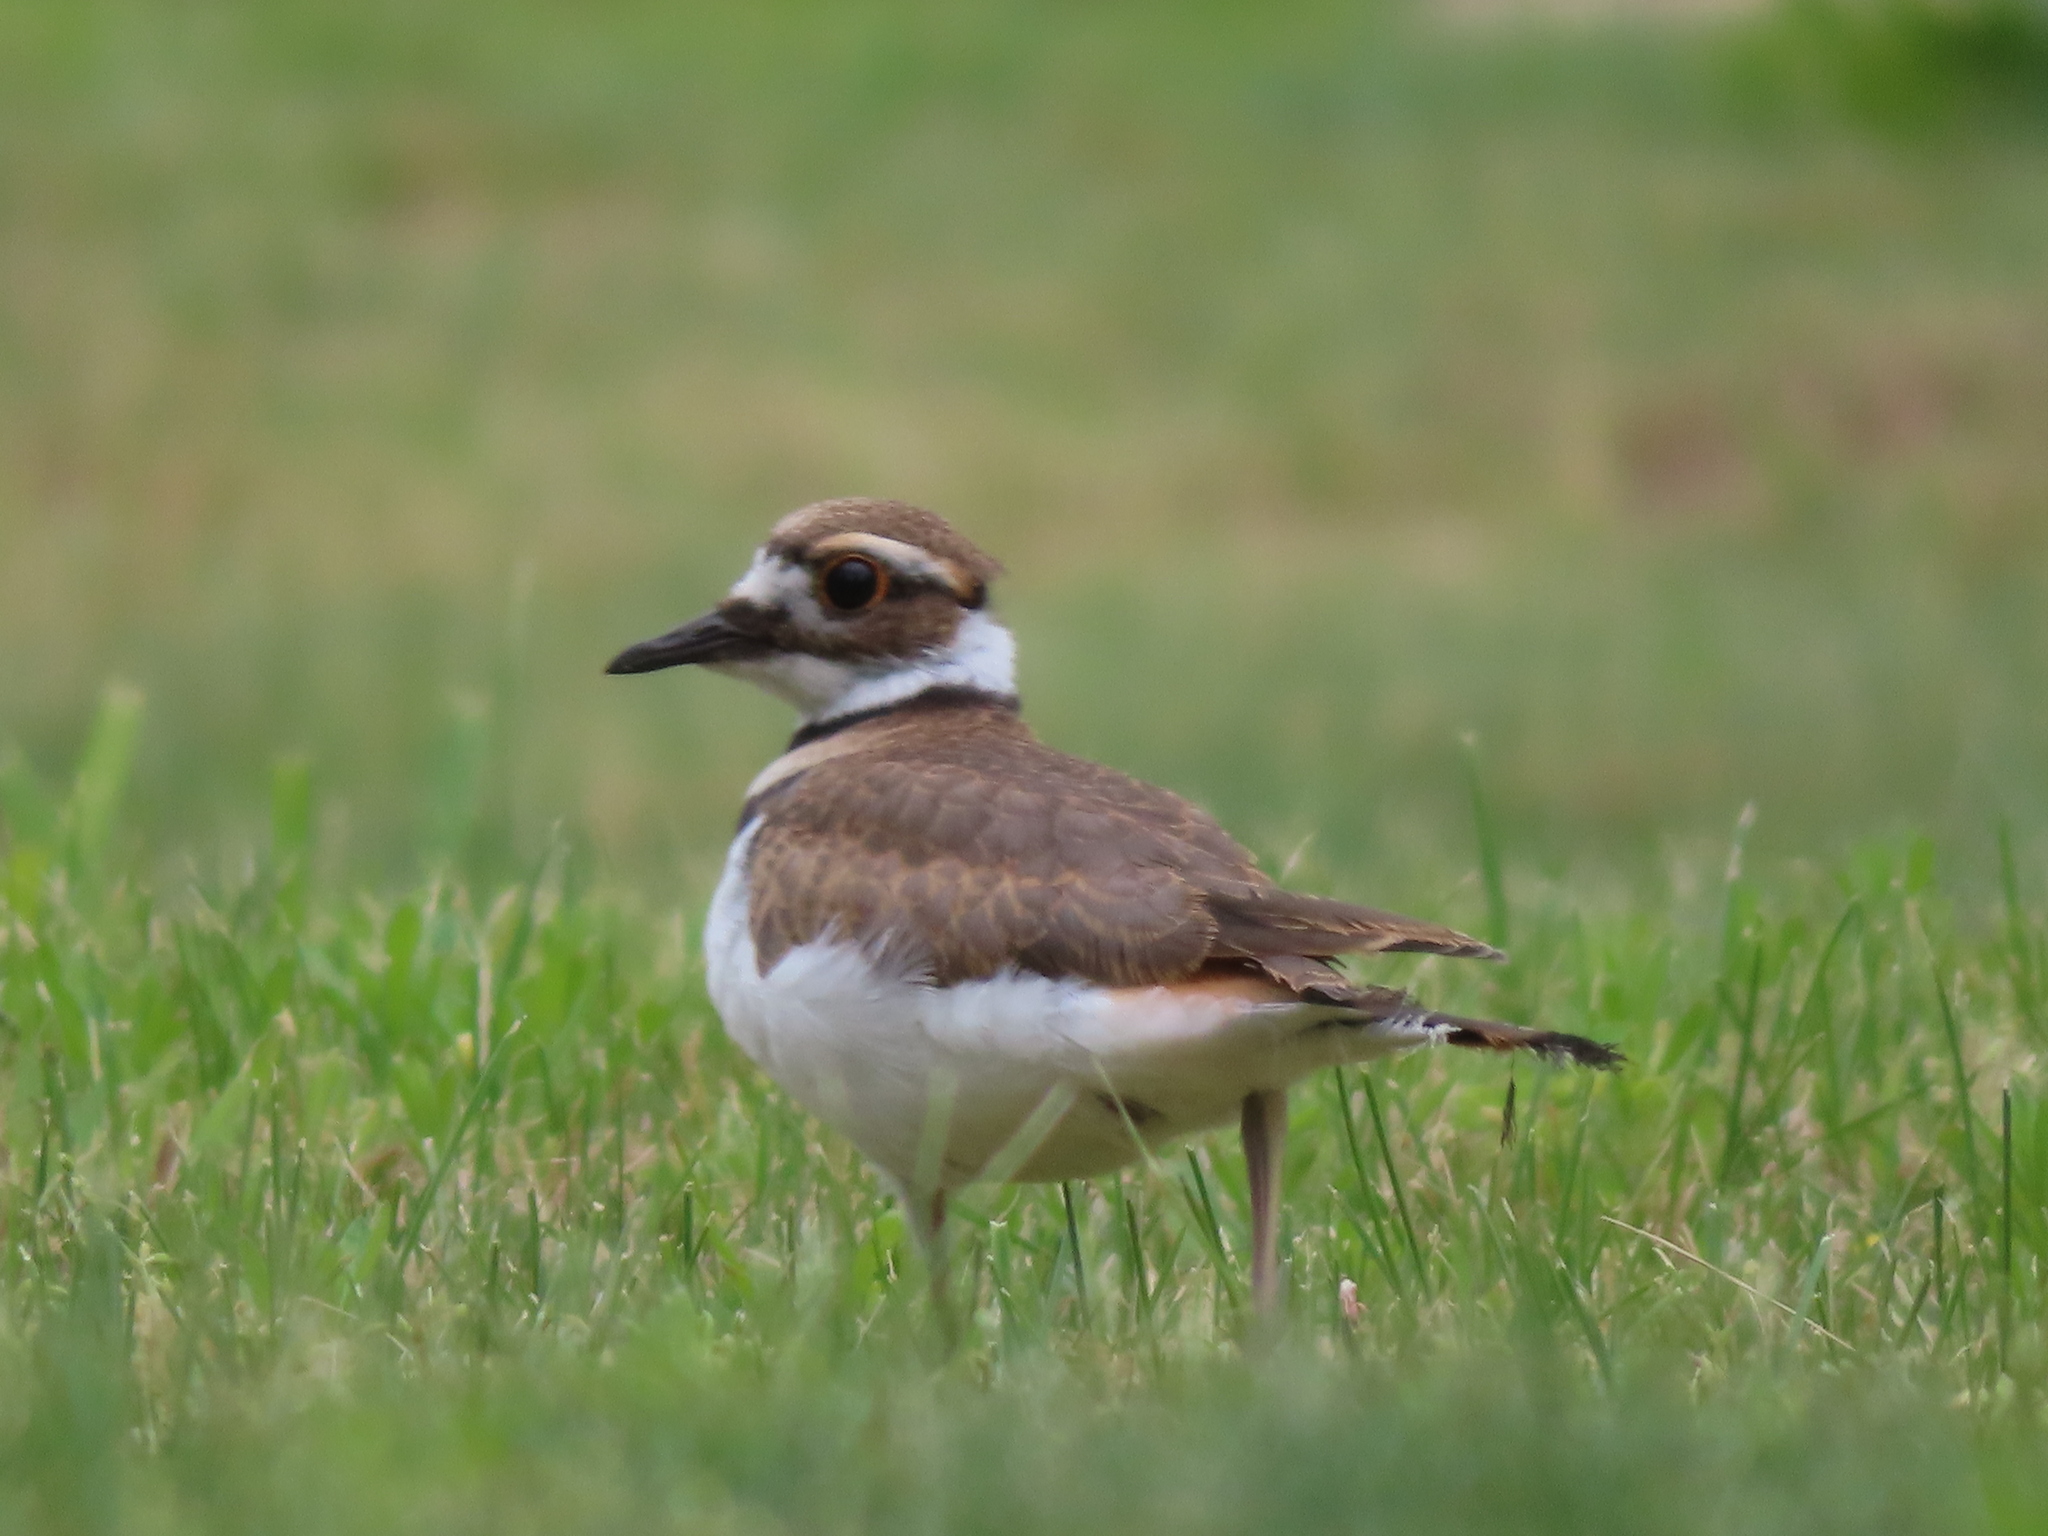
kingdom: Animalia
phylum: Chordata
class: Aves
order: Charadriiformes
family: Charadriidae
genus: Charadrius
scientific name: Charadrius vociferus
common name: Killdeer
